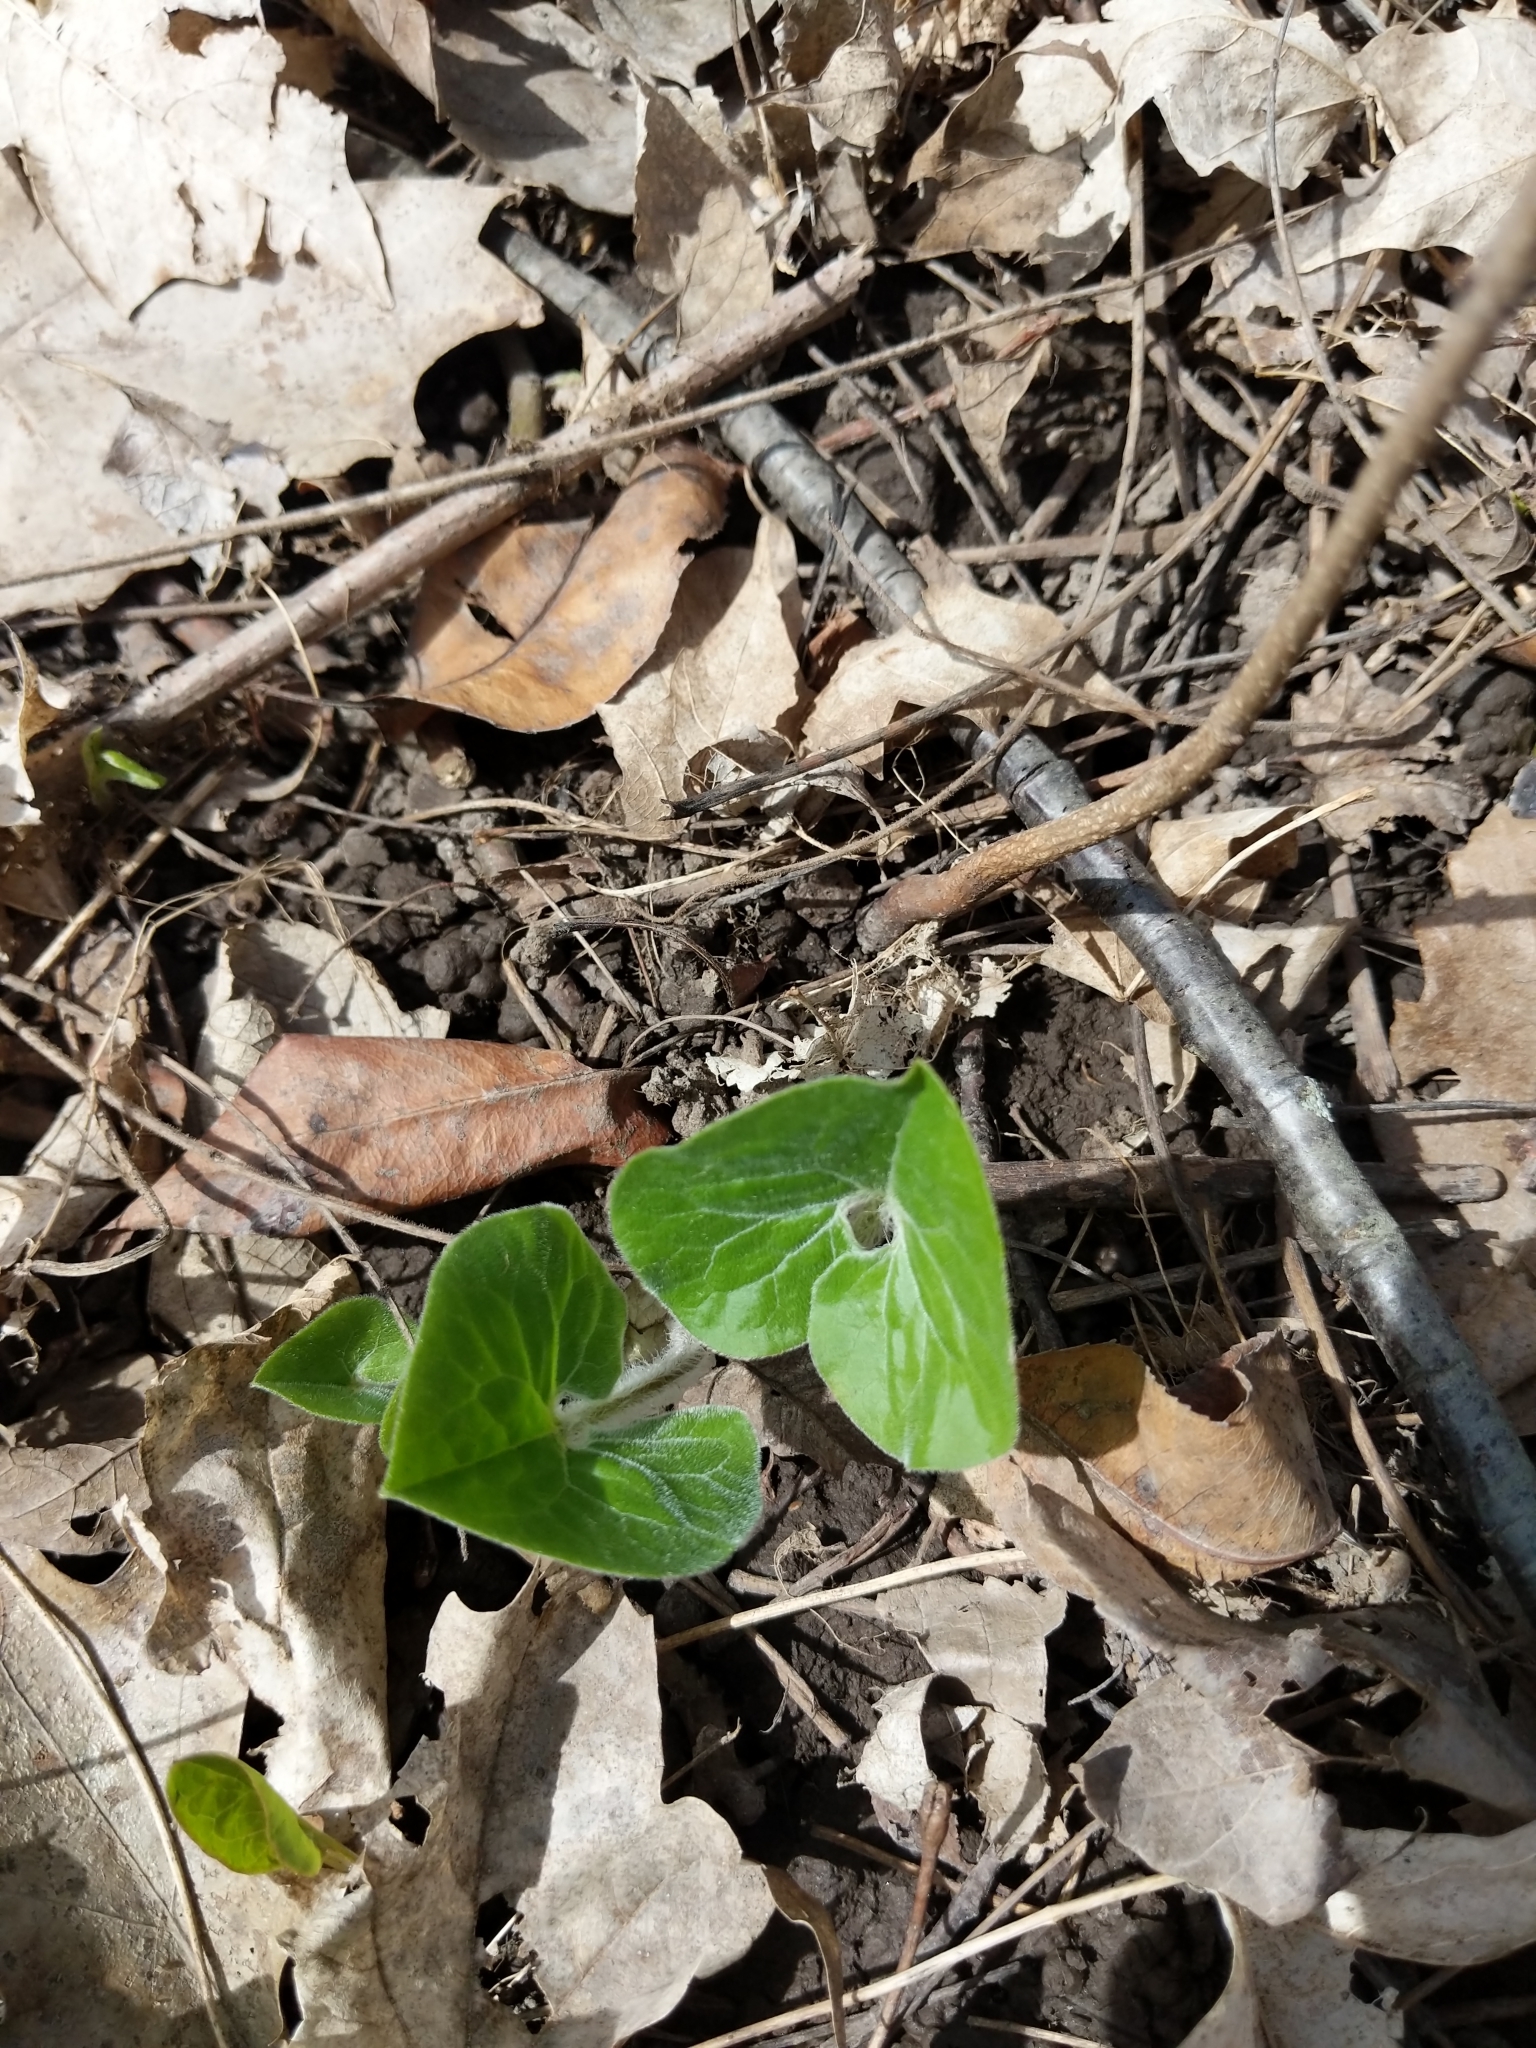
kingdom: Plantae
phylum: Tracheophyta
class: Magnoliopsida
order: Piperales
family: Aristolochiaceae
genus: Asarum
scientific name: Asarum canadense
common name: Wild ginger
